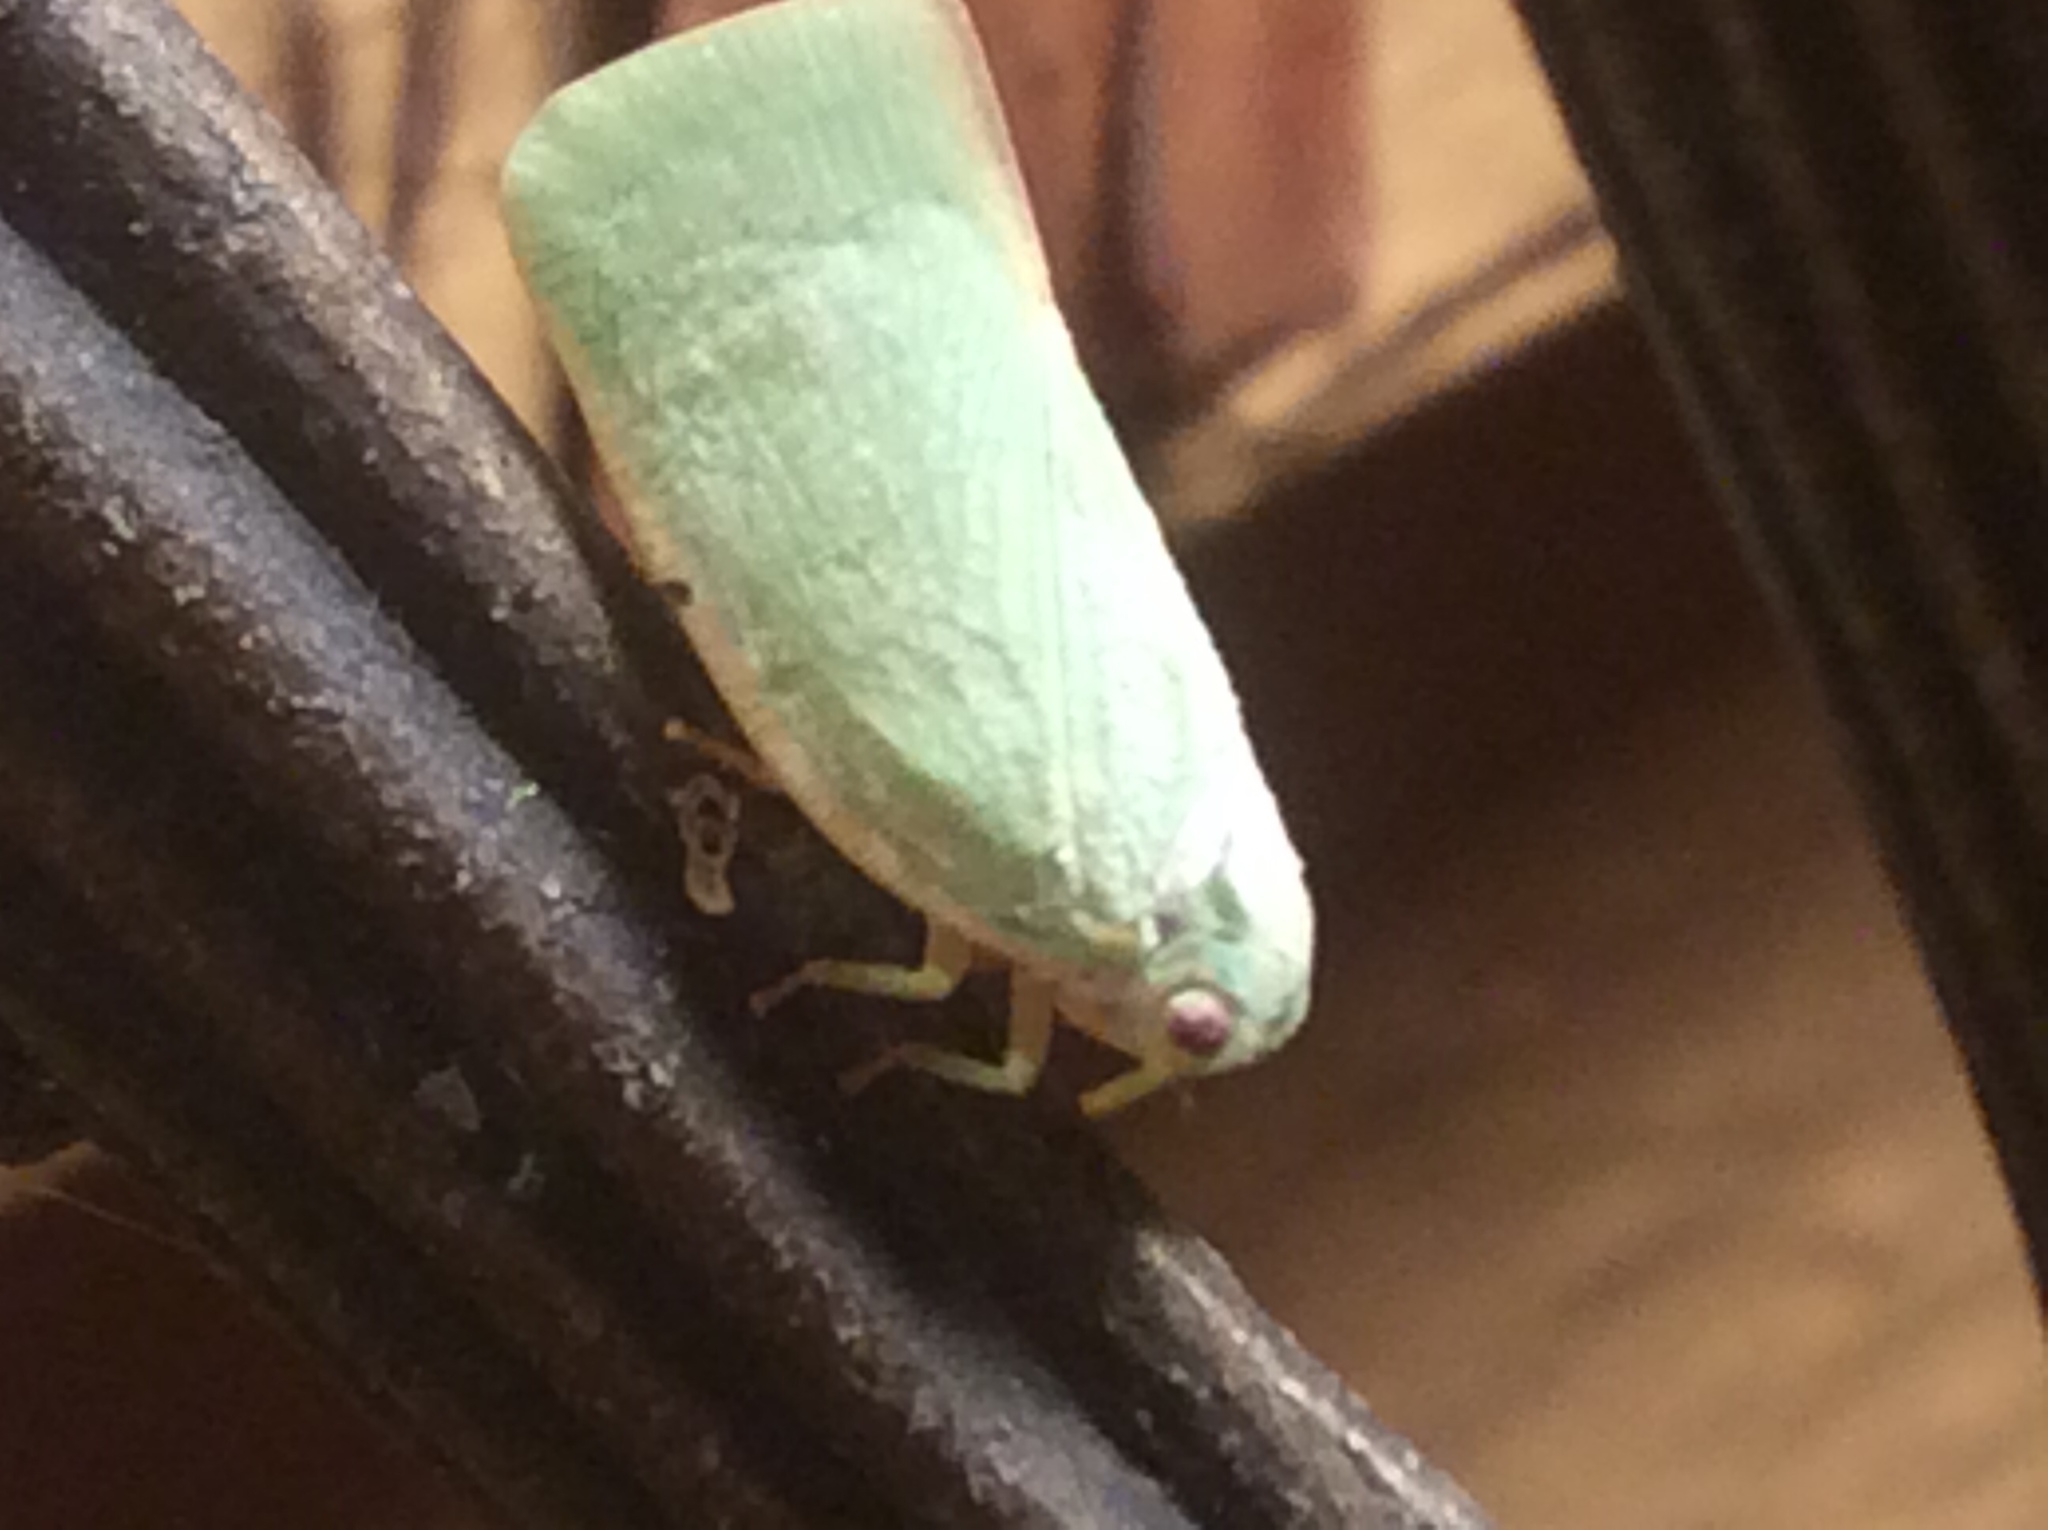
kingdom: Animalia
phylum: Arthropoda
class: Insecta
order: Hemiptera
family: Flatidae
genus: Flatormenis
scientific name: Flatormenis proxima
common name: Northern flatid planthopper
